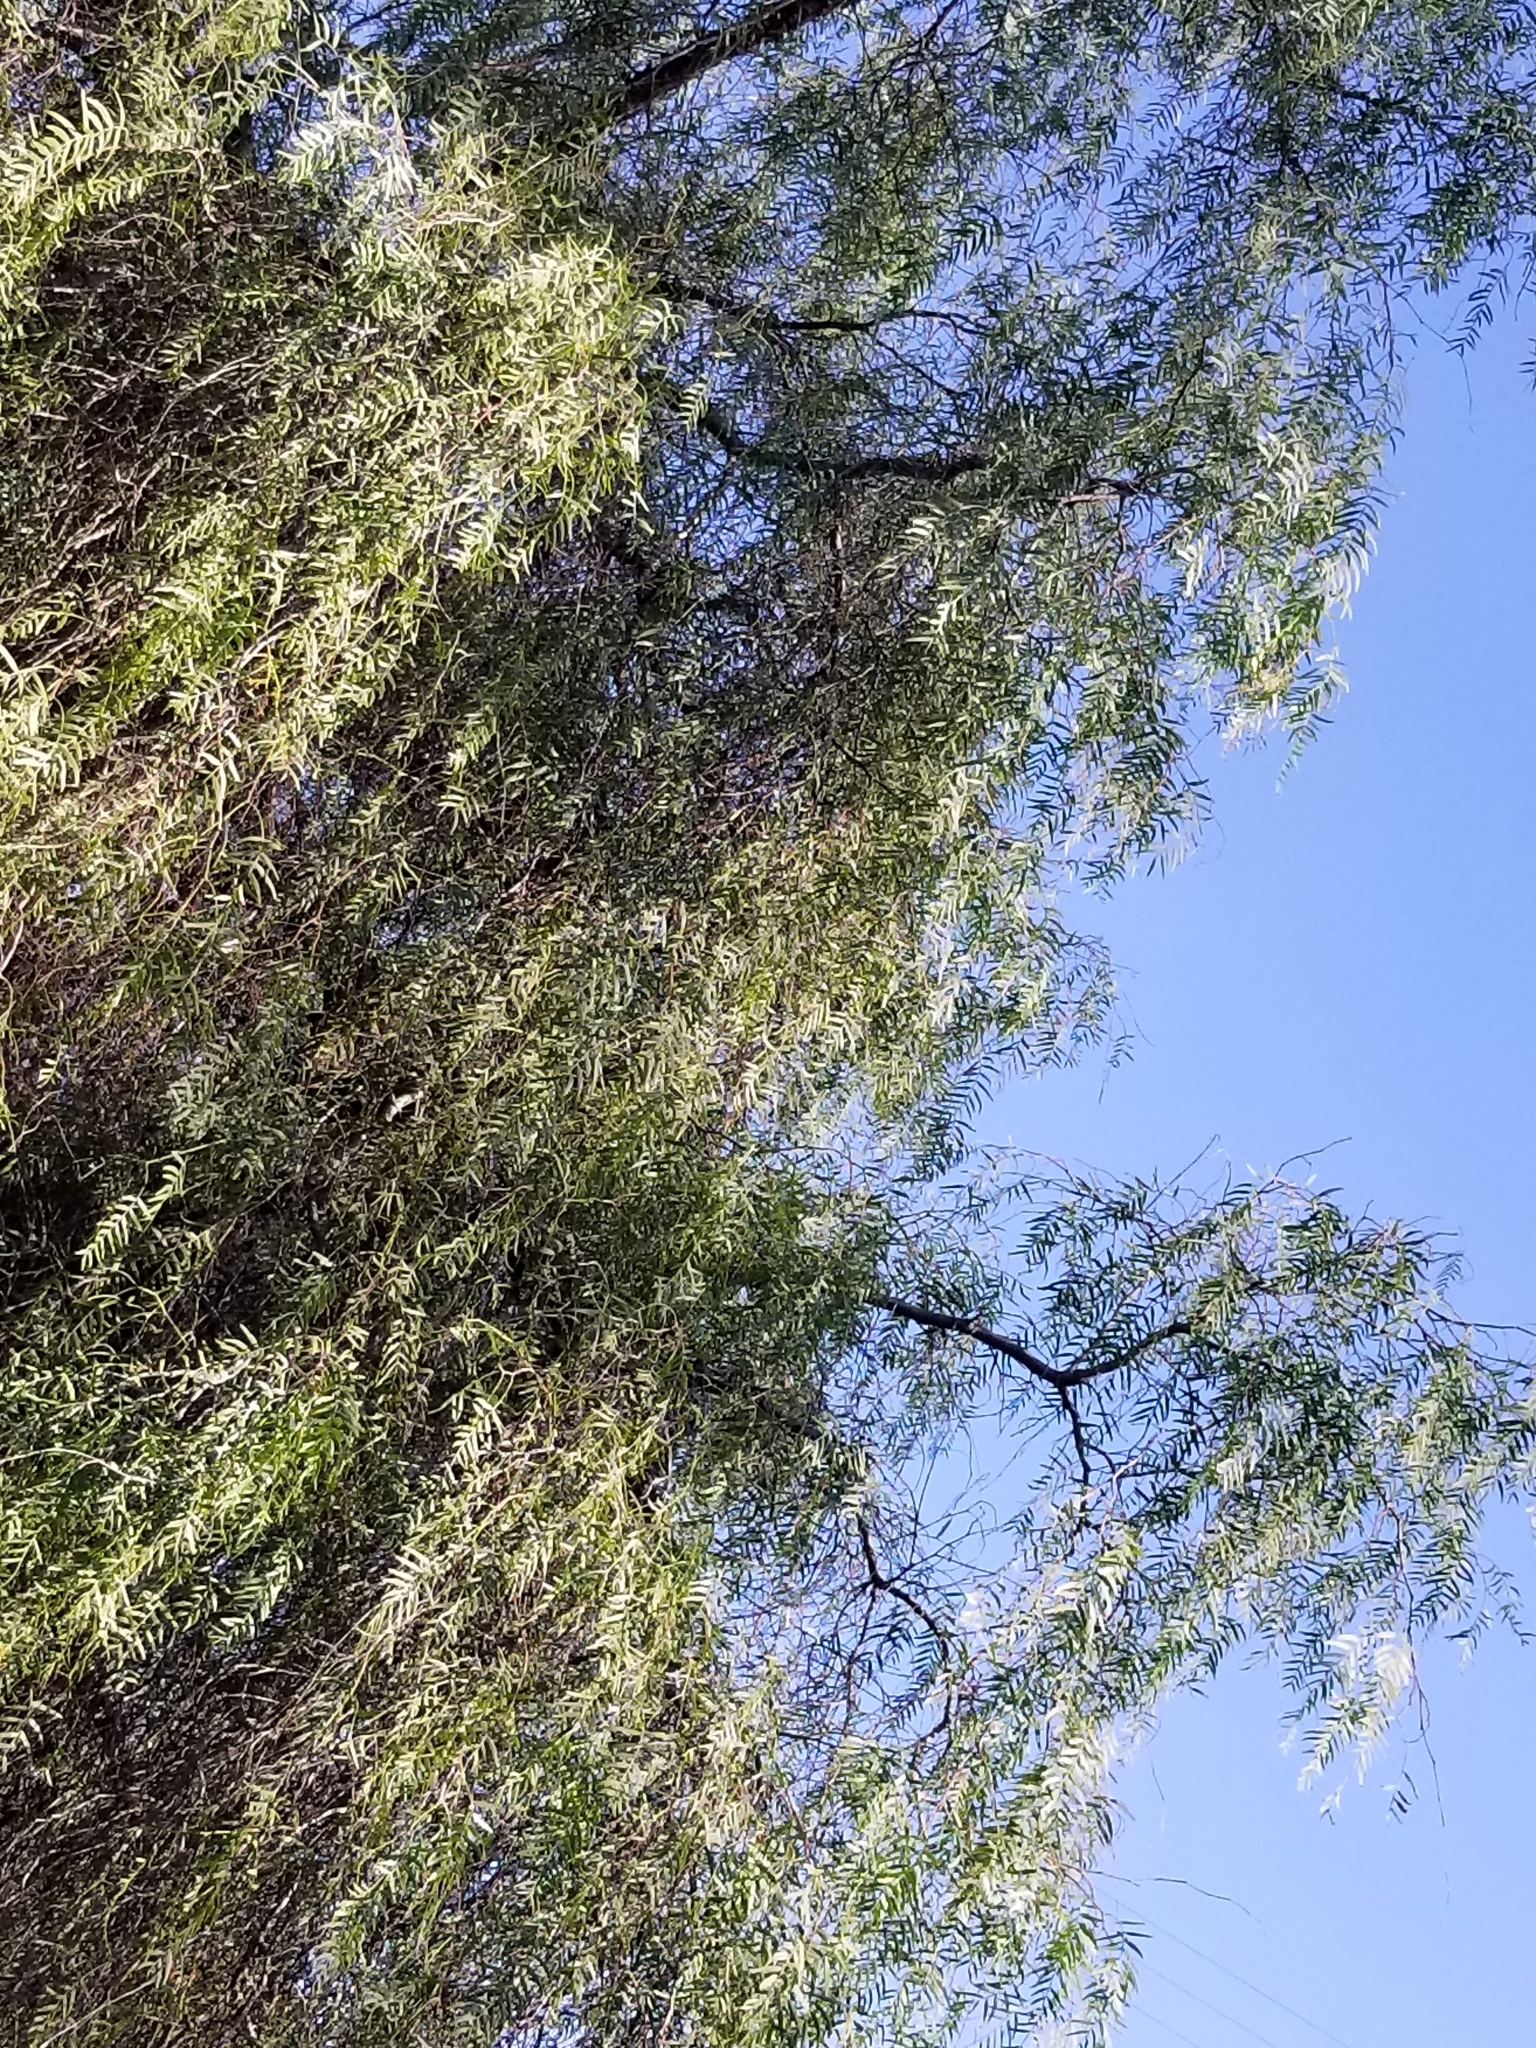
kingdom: Plantae
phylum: Tracheophyta
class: Magnoliopsida
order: Sapindales
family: Anacardiaceae
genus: Schinus
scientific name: Schinus molle
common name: Peruvian peppertree
